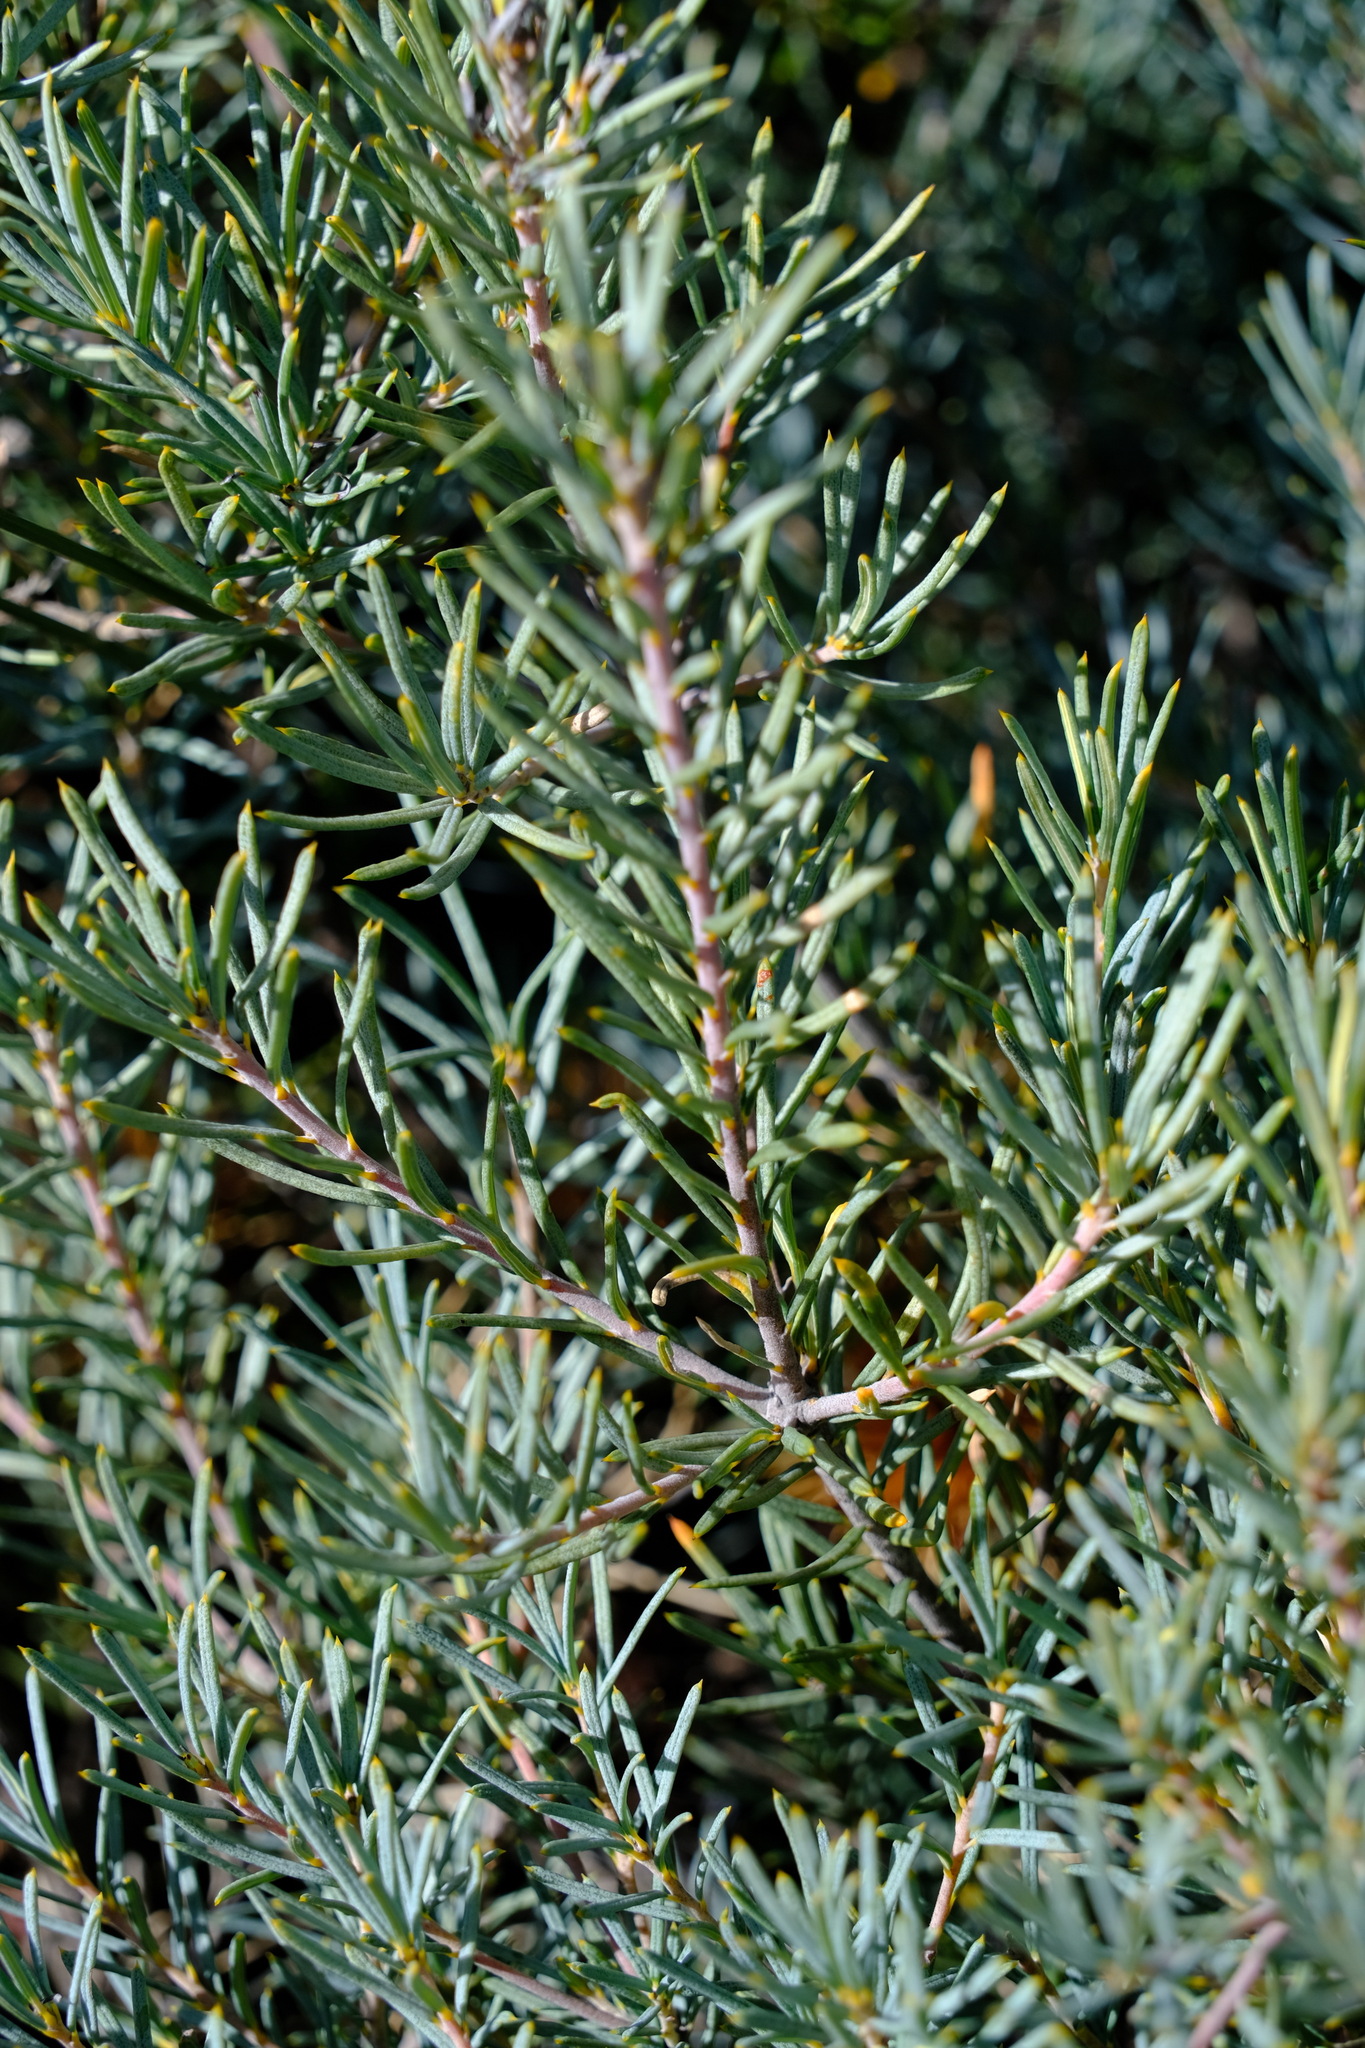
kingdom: Plantae
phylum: Tracheophyta
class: Magnoliopsida
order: Proteales
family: Proteaceae
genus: Banksia
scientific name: Banksia micrantha
